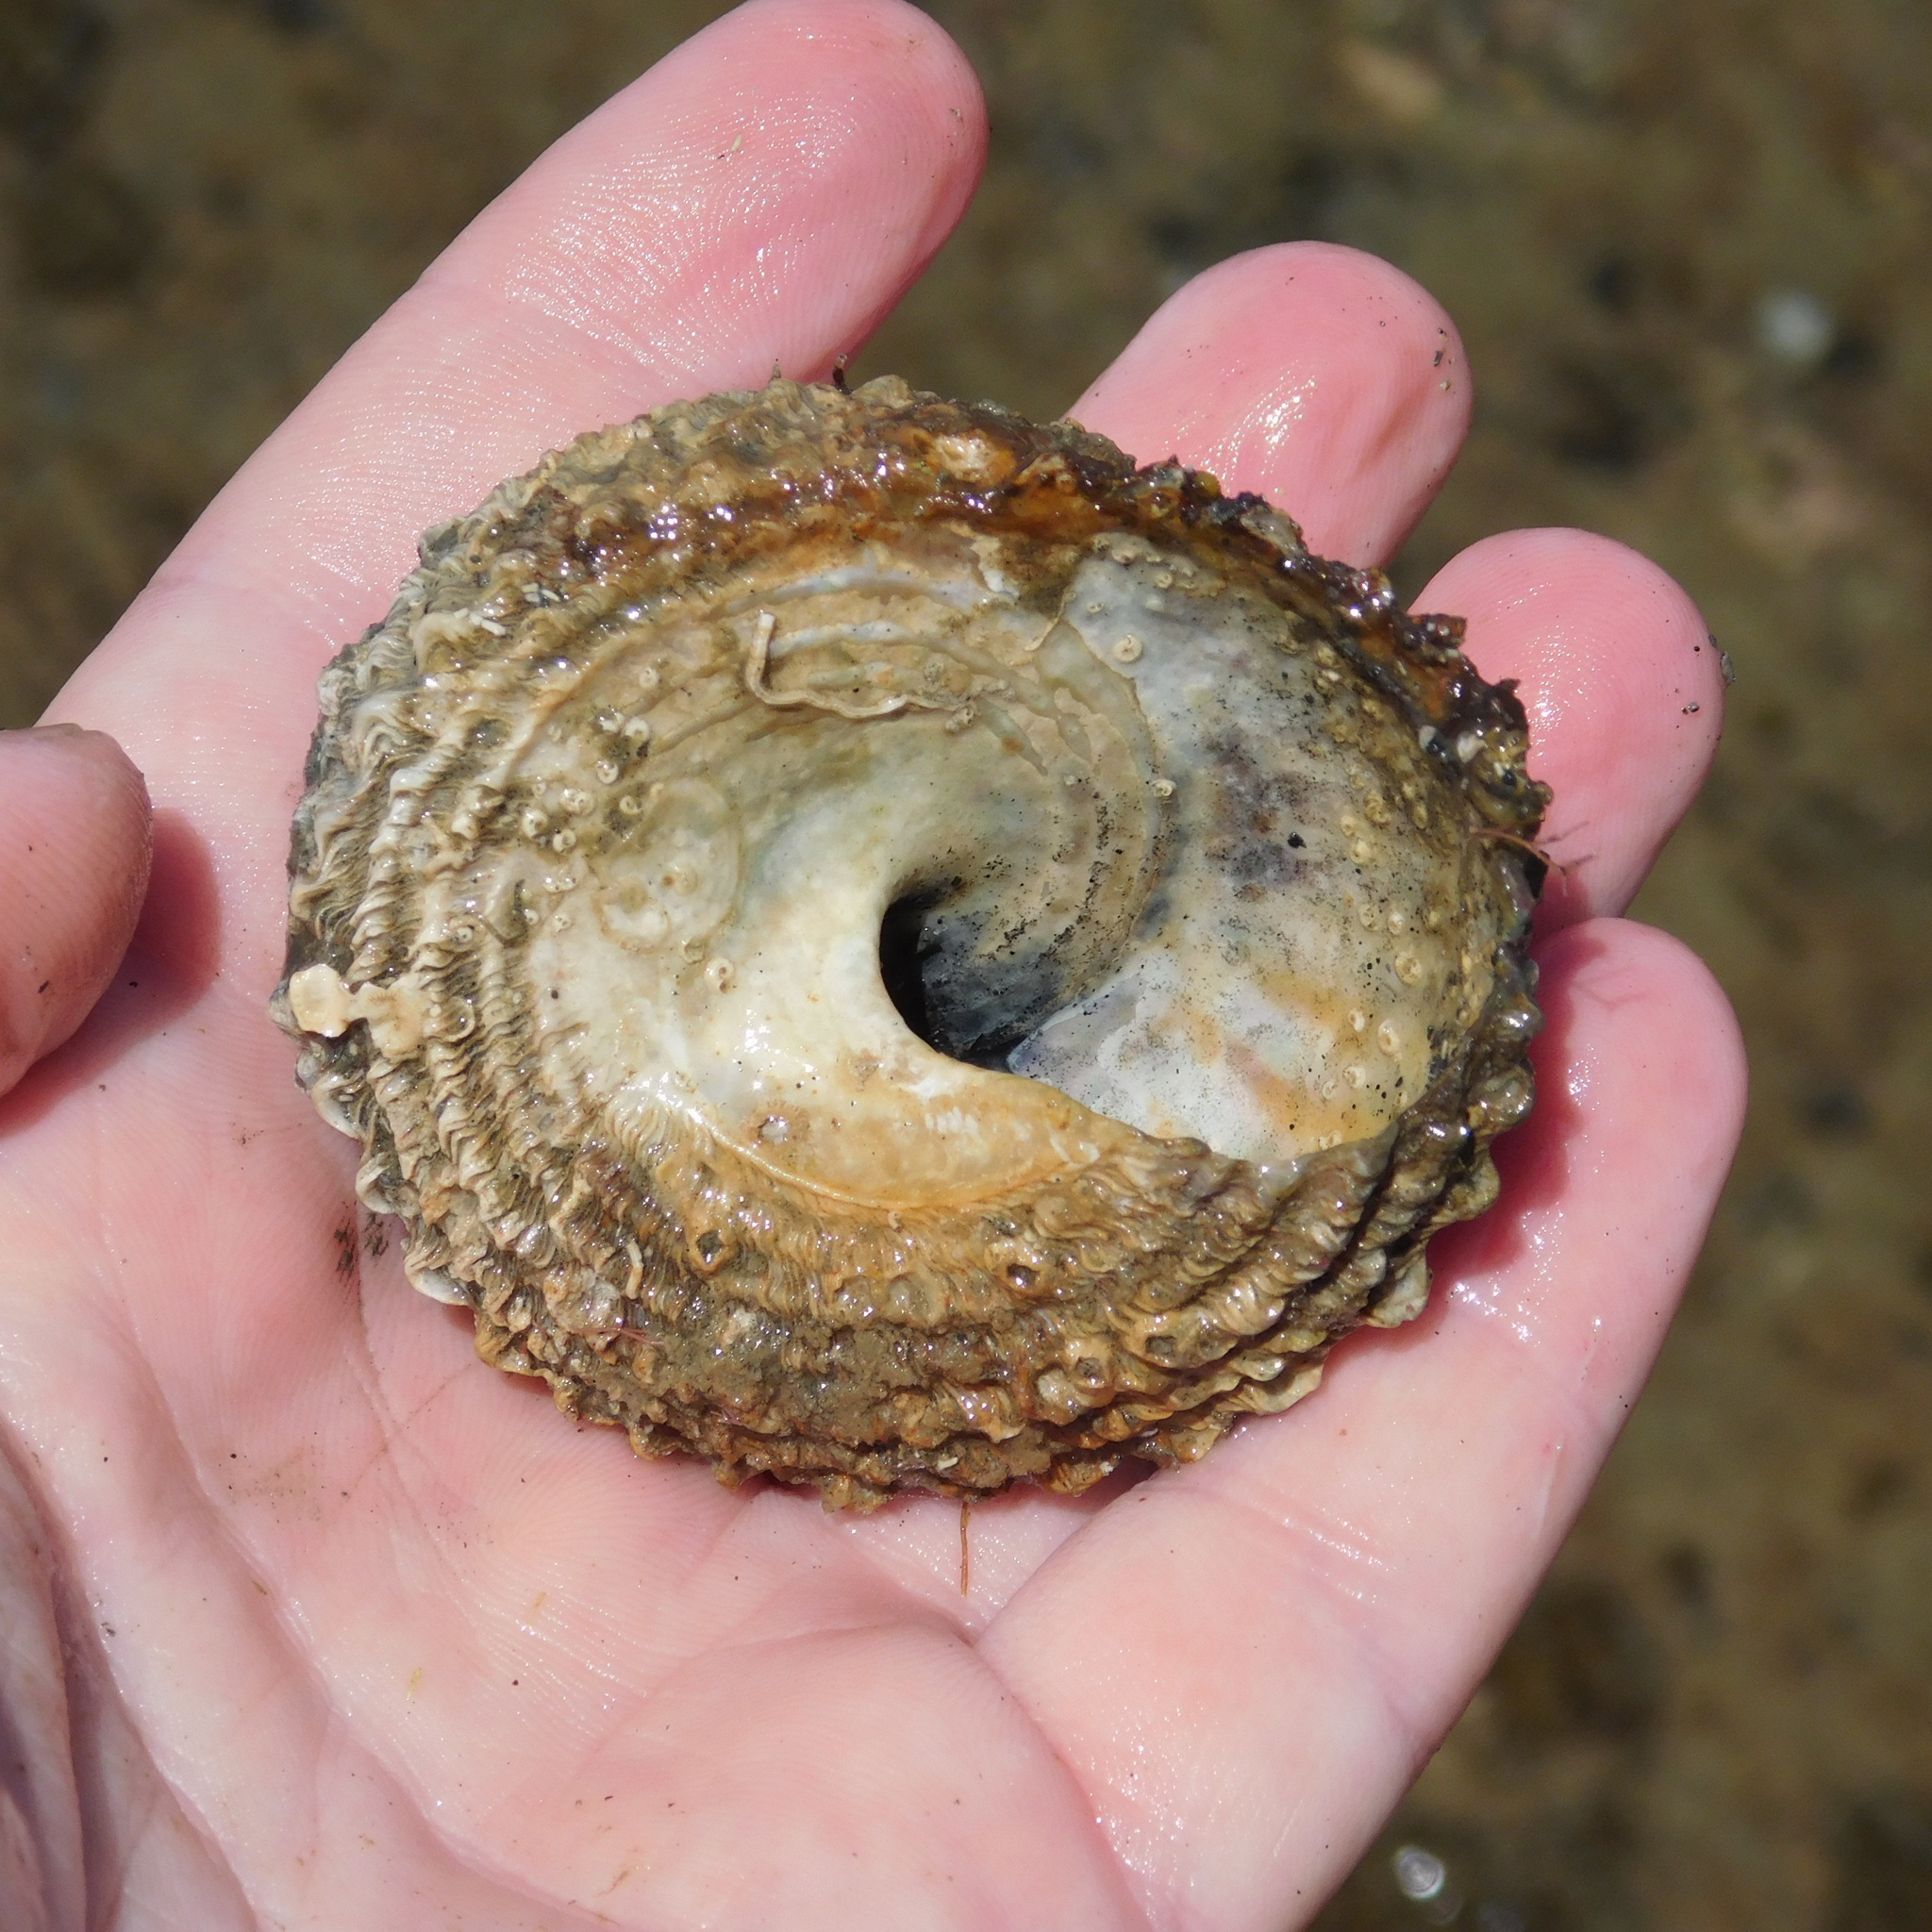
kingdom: Animalia
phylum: Mollusca
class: Gastropoda
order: Trochida
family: Turbinidae
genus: Cookia
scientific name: Cookia sulcata
